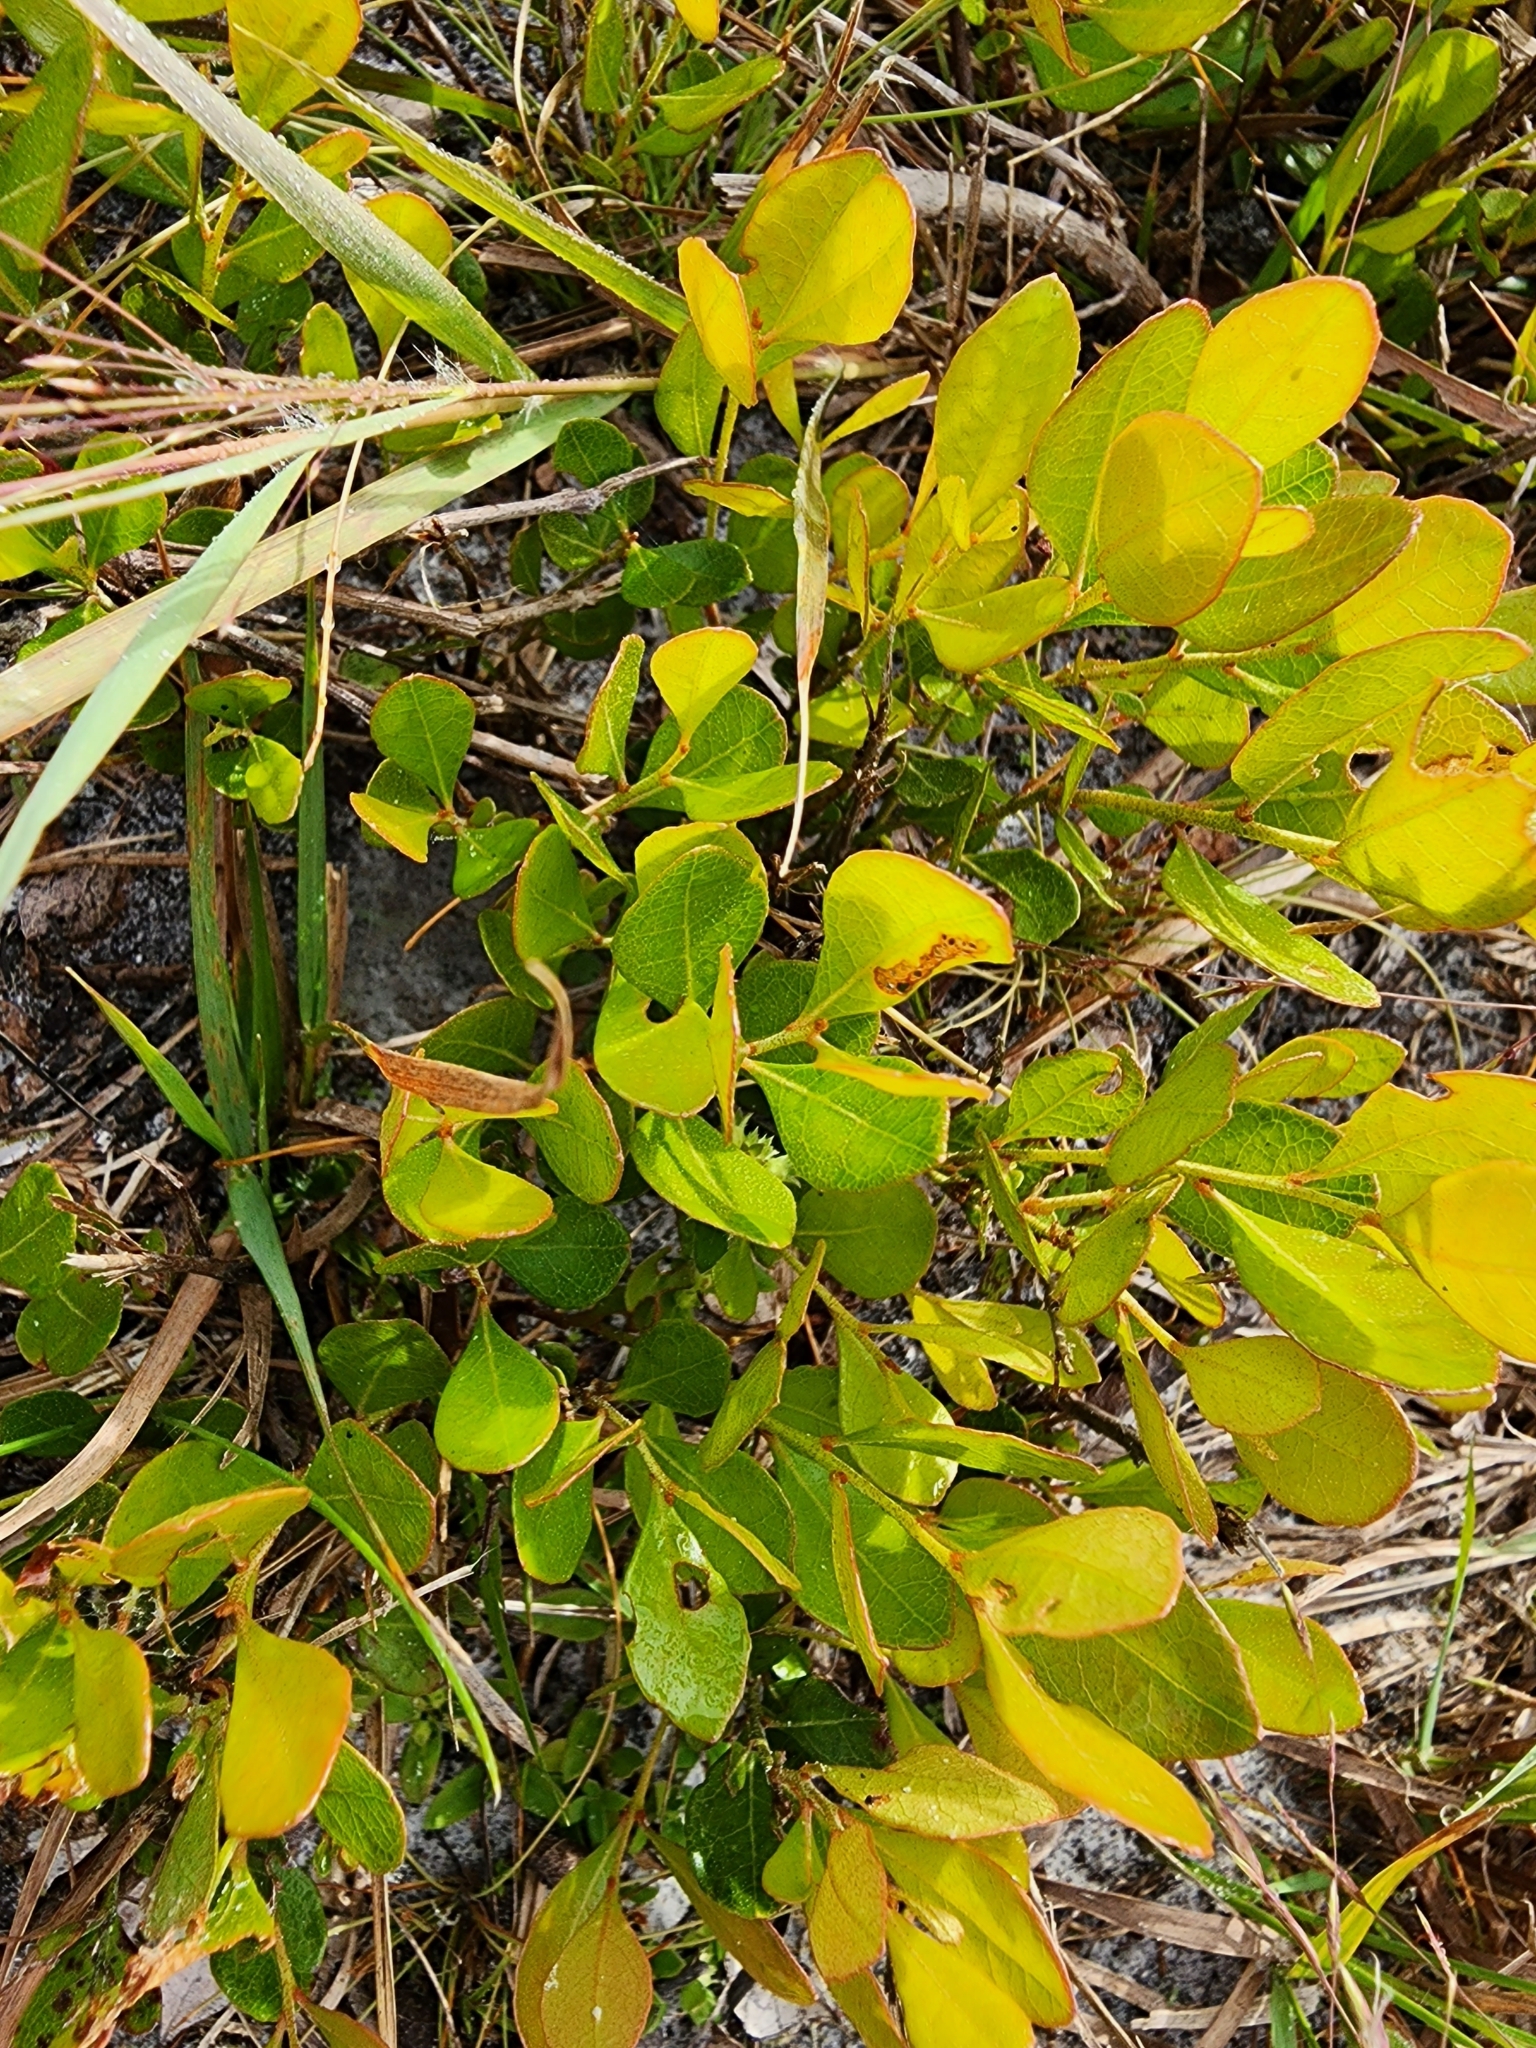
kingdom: Plantae
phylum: Tracheophyta
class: Magnoliopsida
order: Ericales
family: Ericaceae
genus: Gaylussacia
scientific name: Gaylussacia dumosa
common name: Dwarf huckleberry
